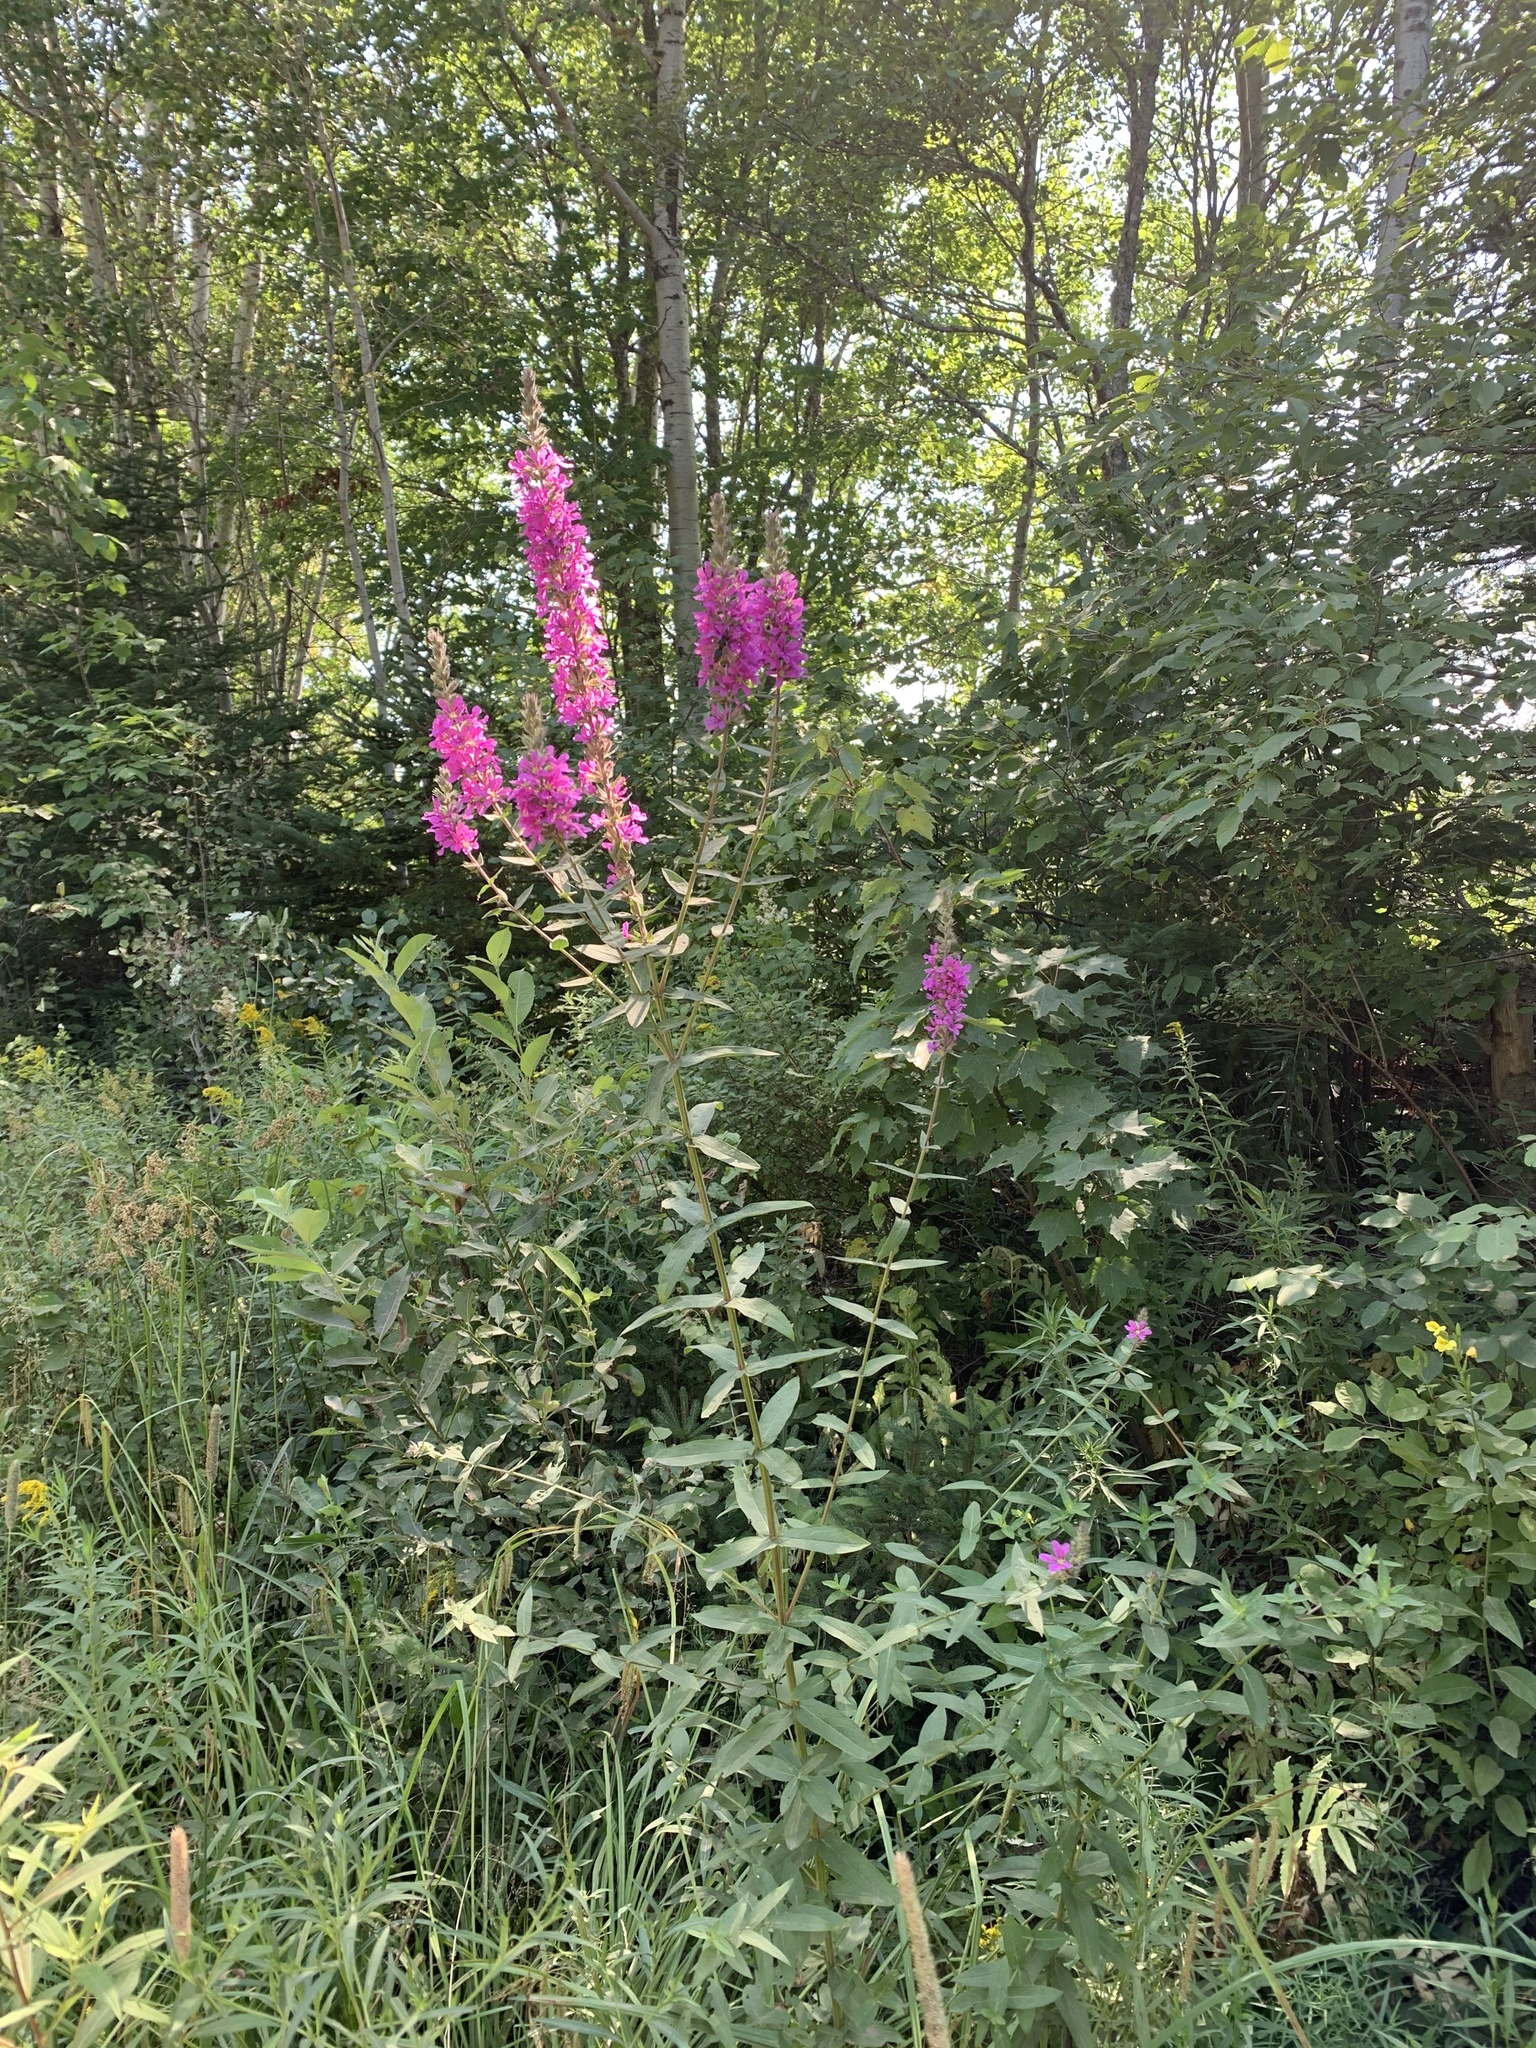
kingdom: Plantae
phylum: Tracheophyta
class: Magnoliopsida
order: Myrtales
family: Lythraceae
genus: Lythrum
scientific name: Lythrum salicaria
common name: Purple loosestrife
